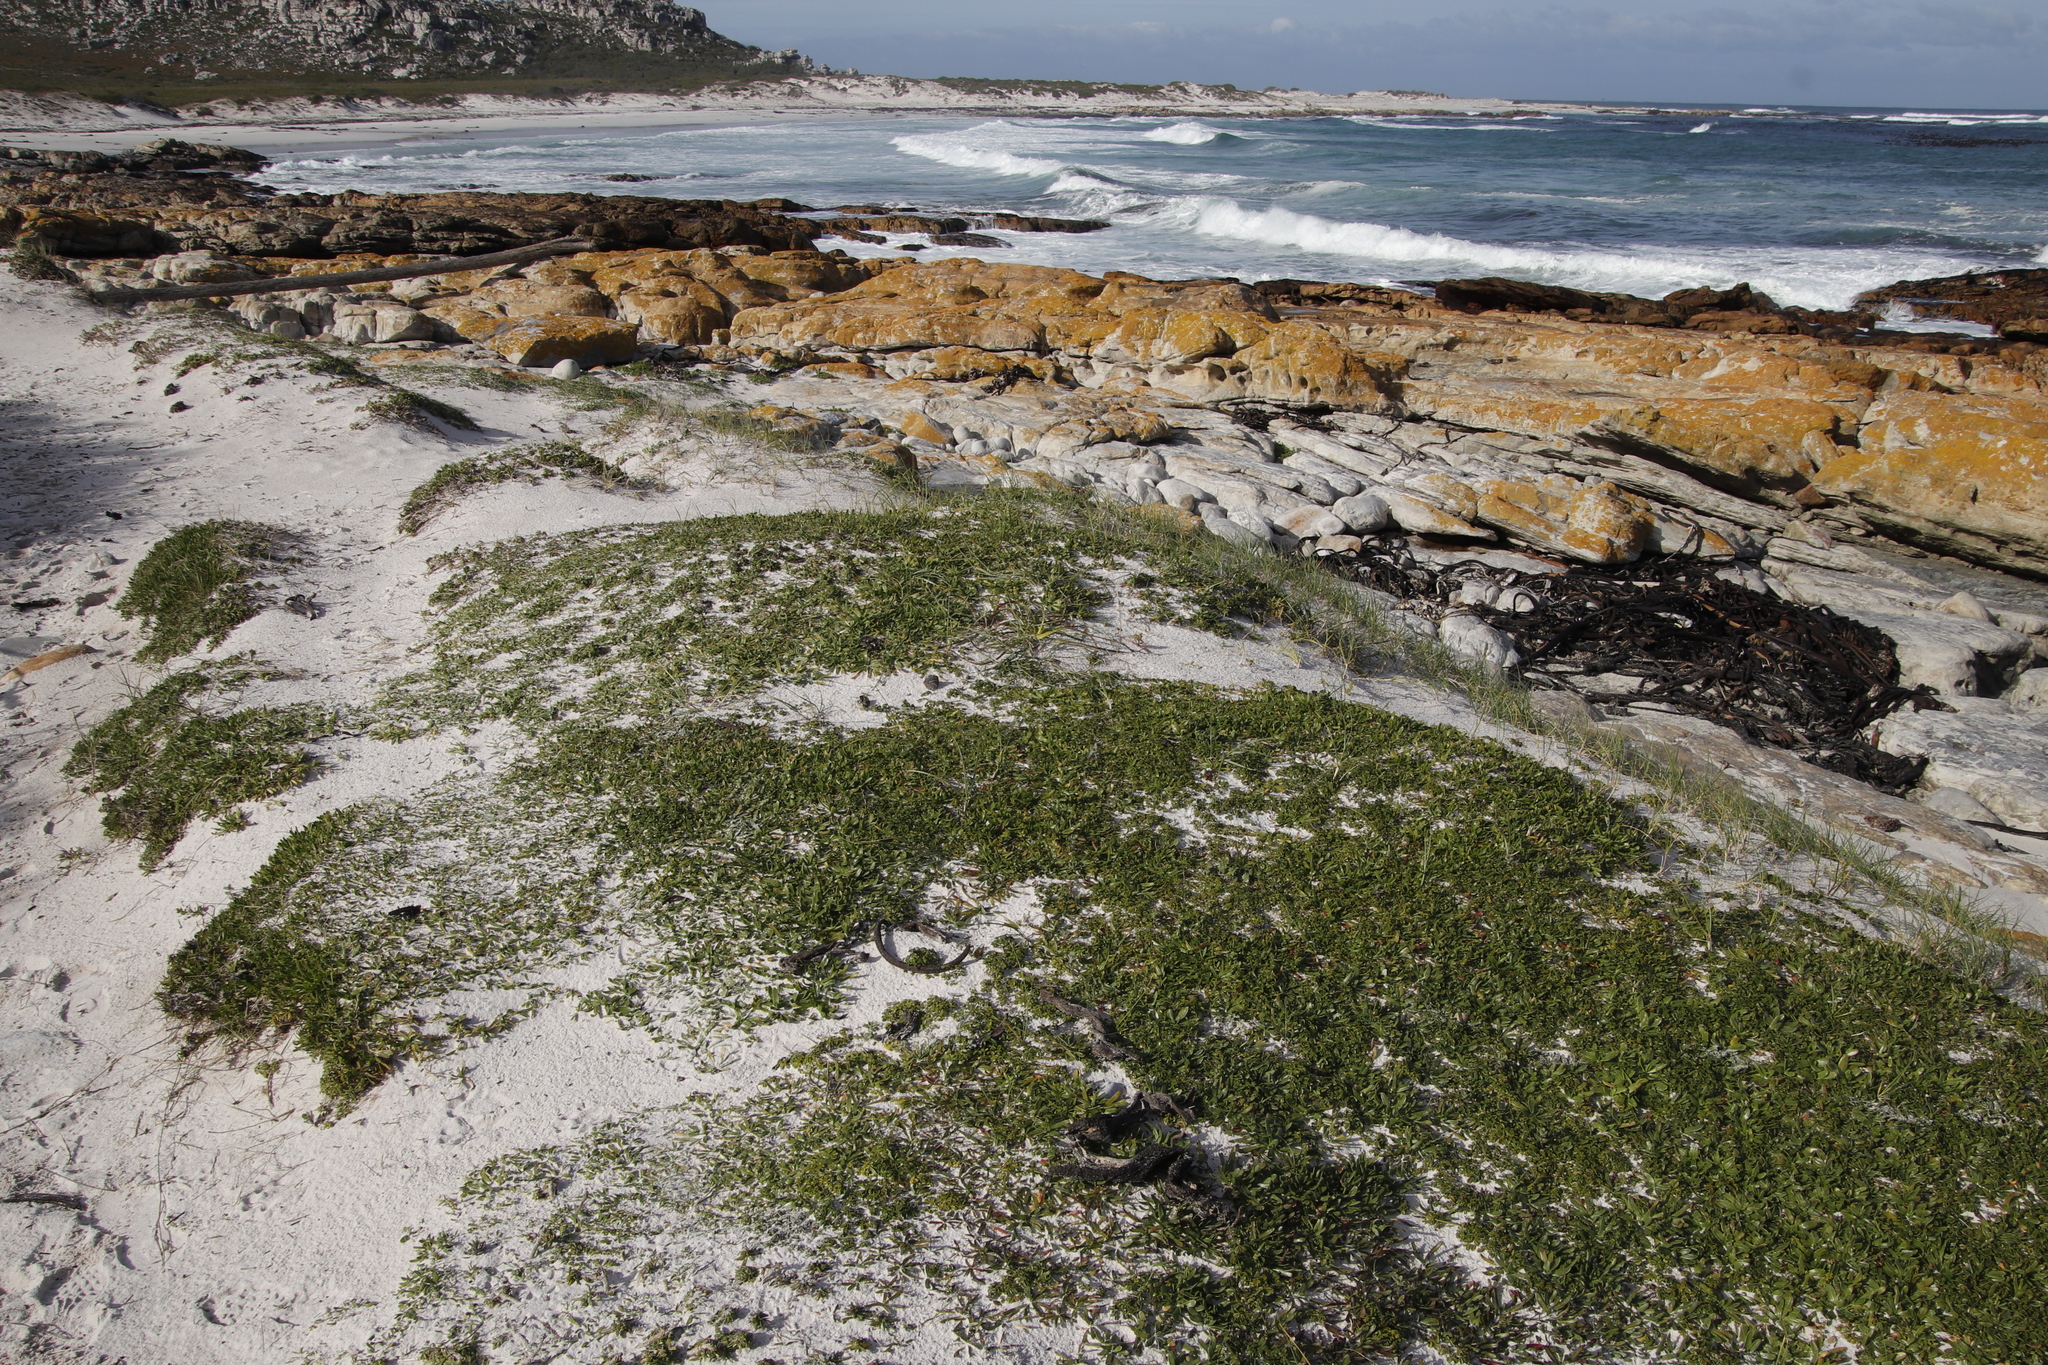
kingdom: Plantae
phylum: Tracheophyta
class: Magnoliopsida
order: Lamiales
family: Plantaginaceae
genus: Plantago
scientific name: Plantago carnosa
